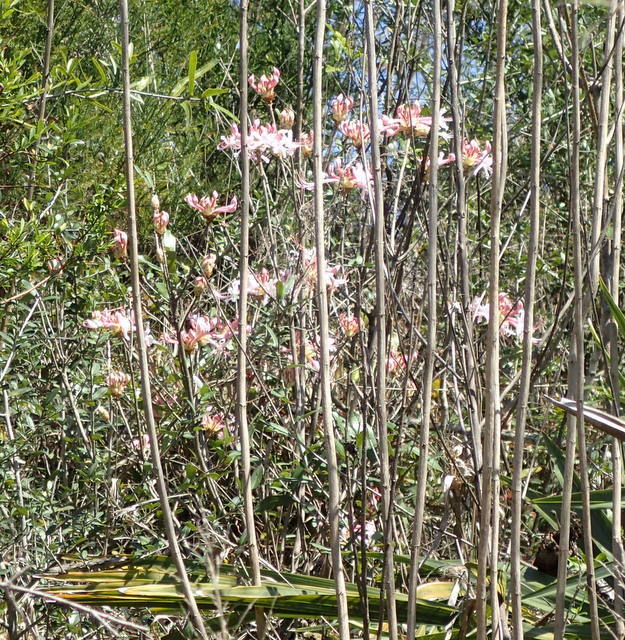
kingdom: Plantae
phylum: Tracheophyta
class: Magnoliopsida
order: Ericales
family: Ericaceae
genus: Rhododendron
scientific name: Rhododendron canescens
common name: Mountain azalea
